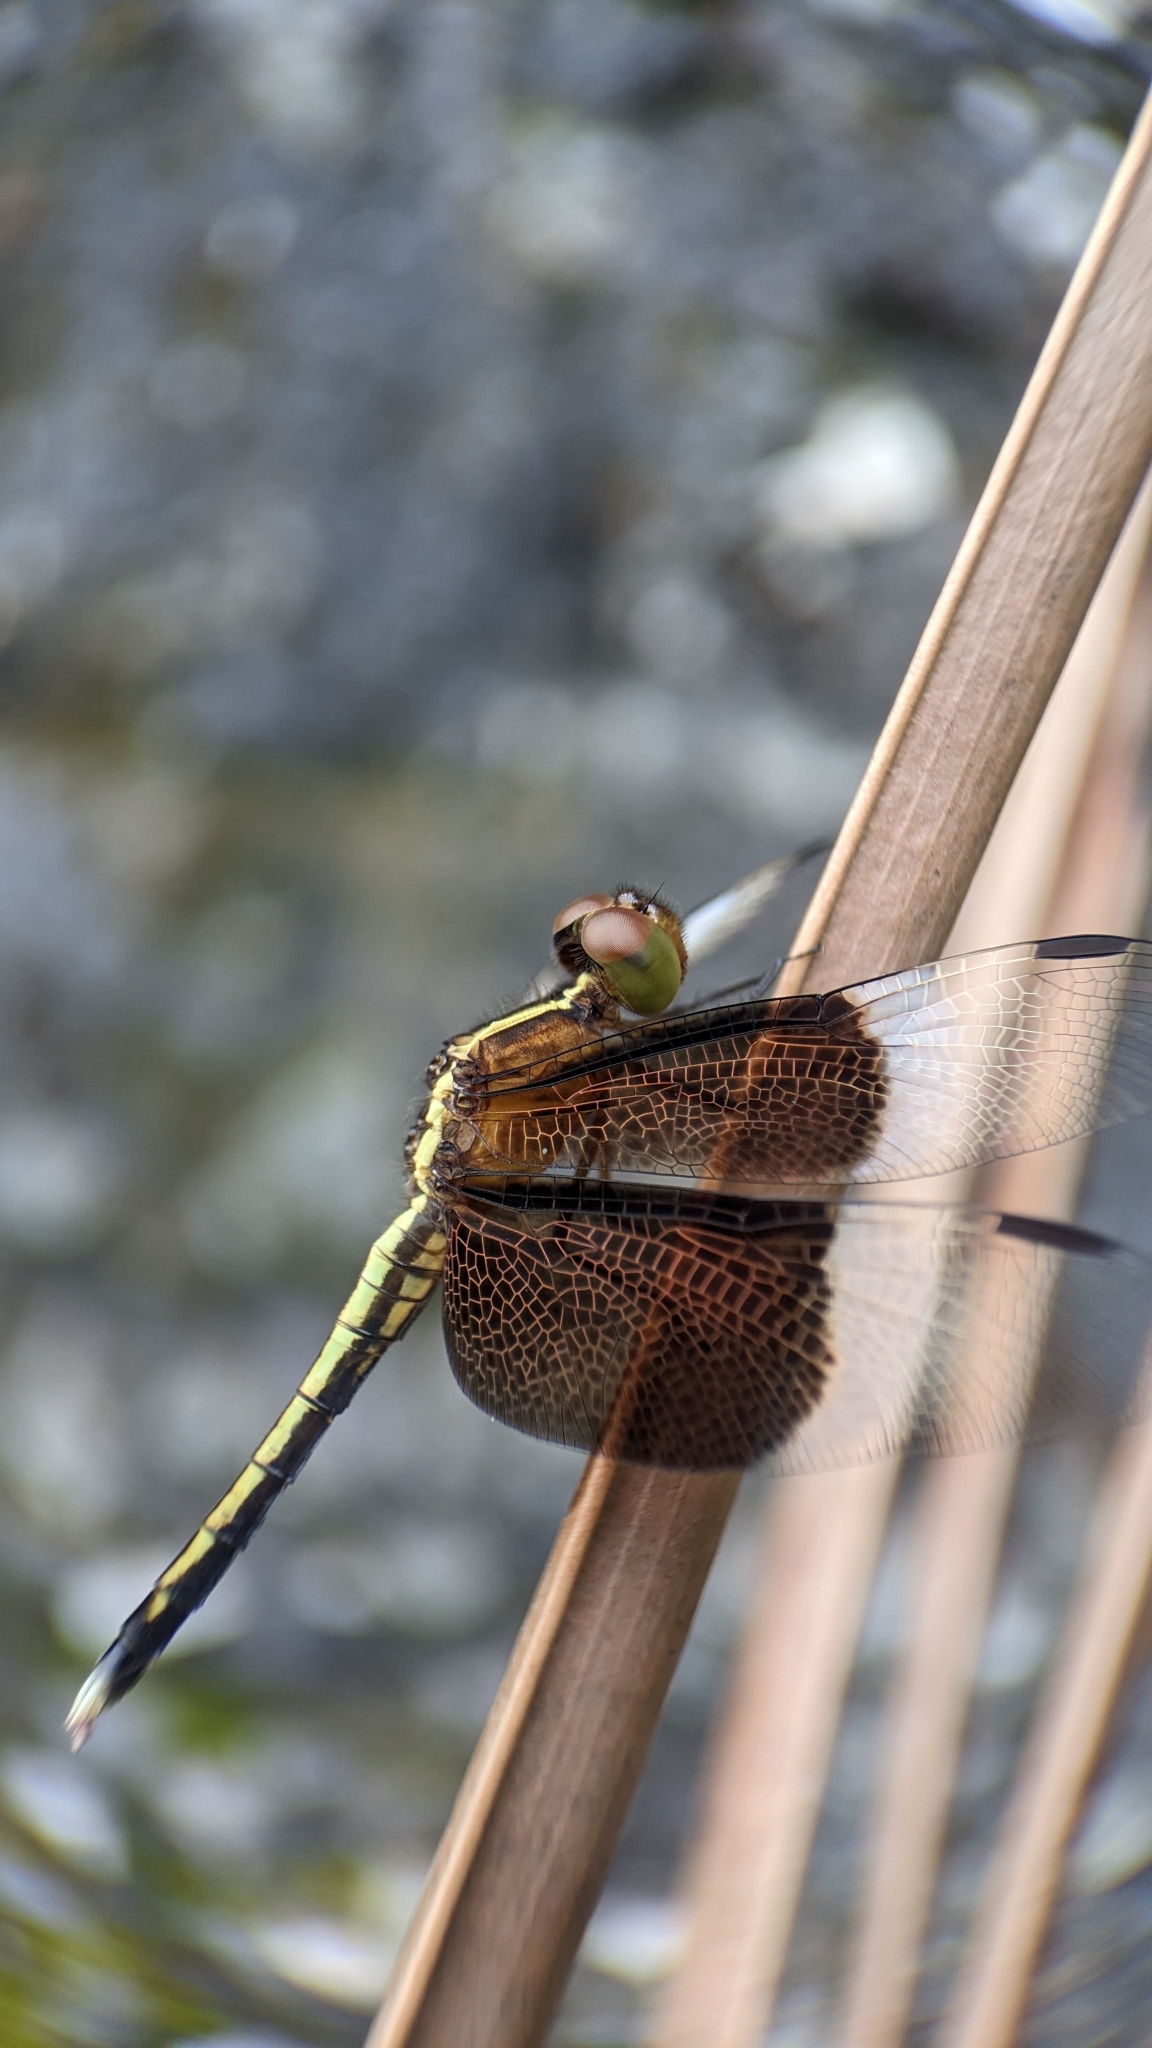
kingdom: Animalia
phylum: Arthropoda
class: Insecta
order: Odonata
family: Libellulidae
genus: Neurothemis
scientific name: Neurothemis tullia
